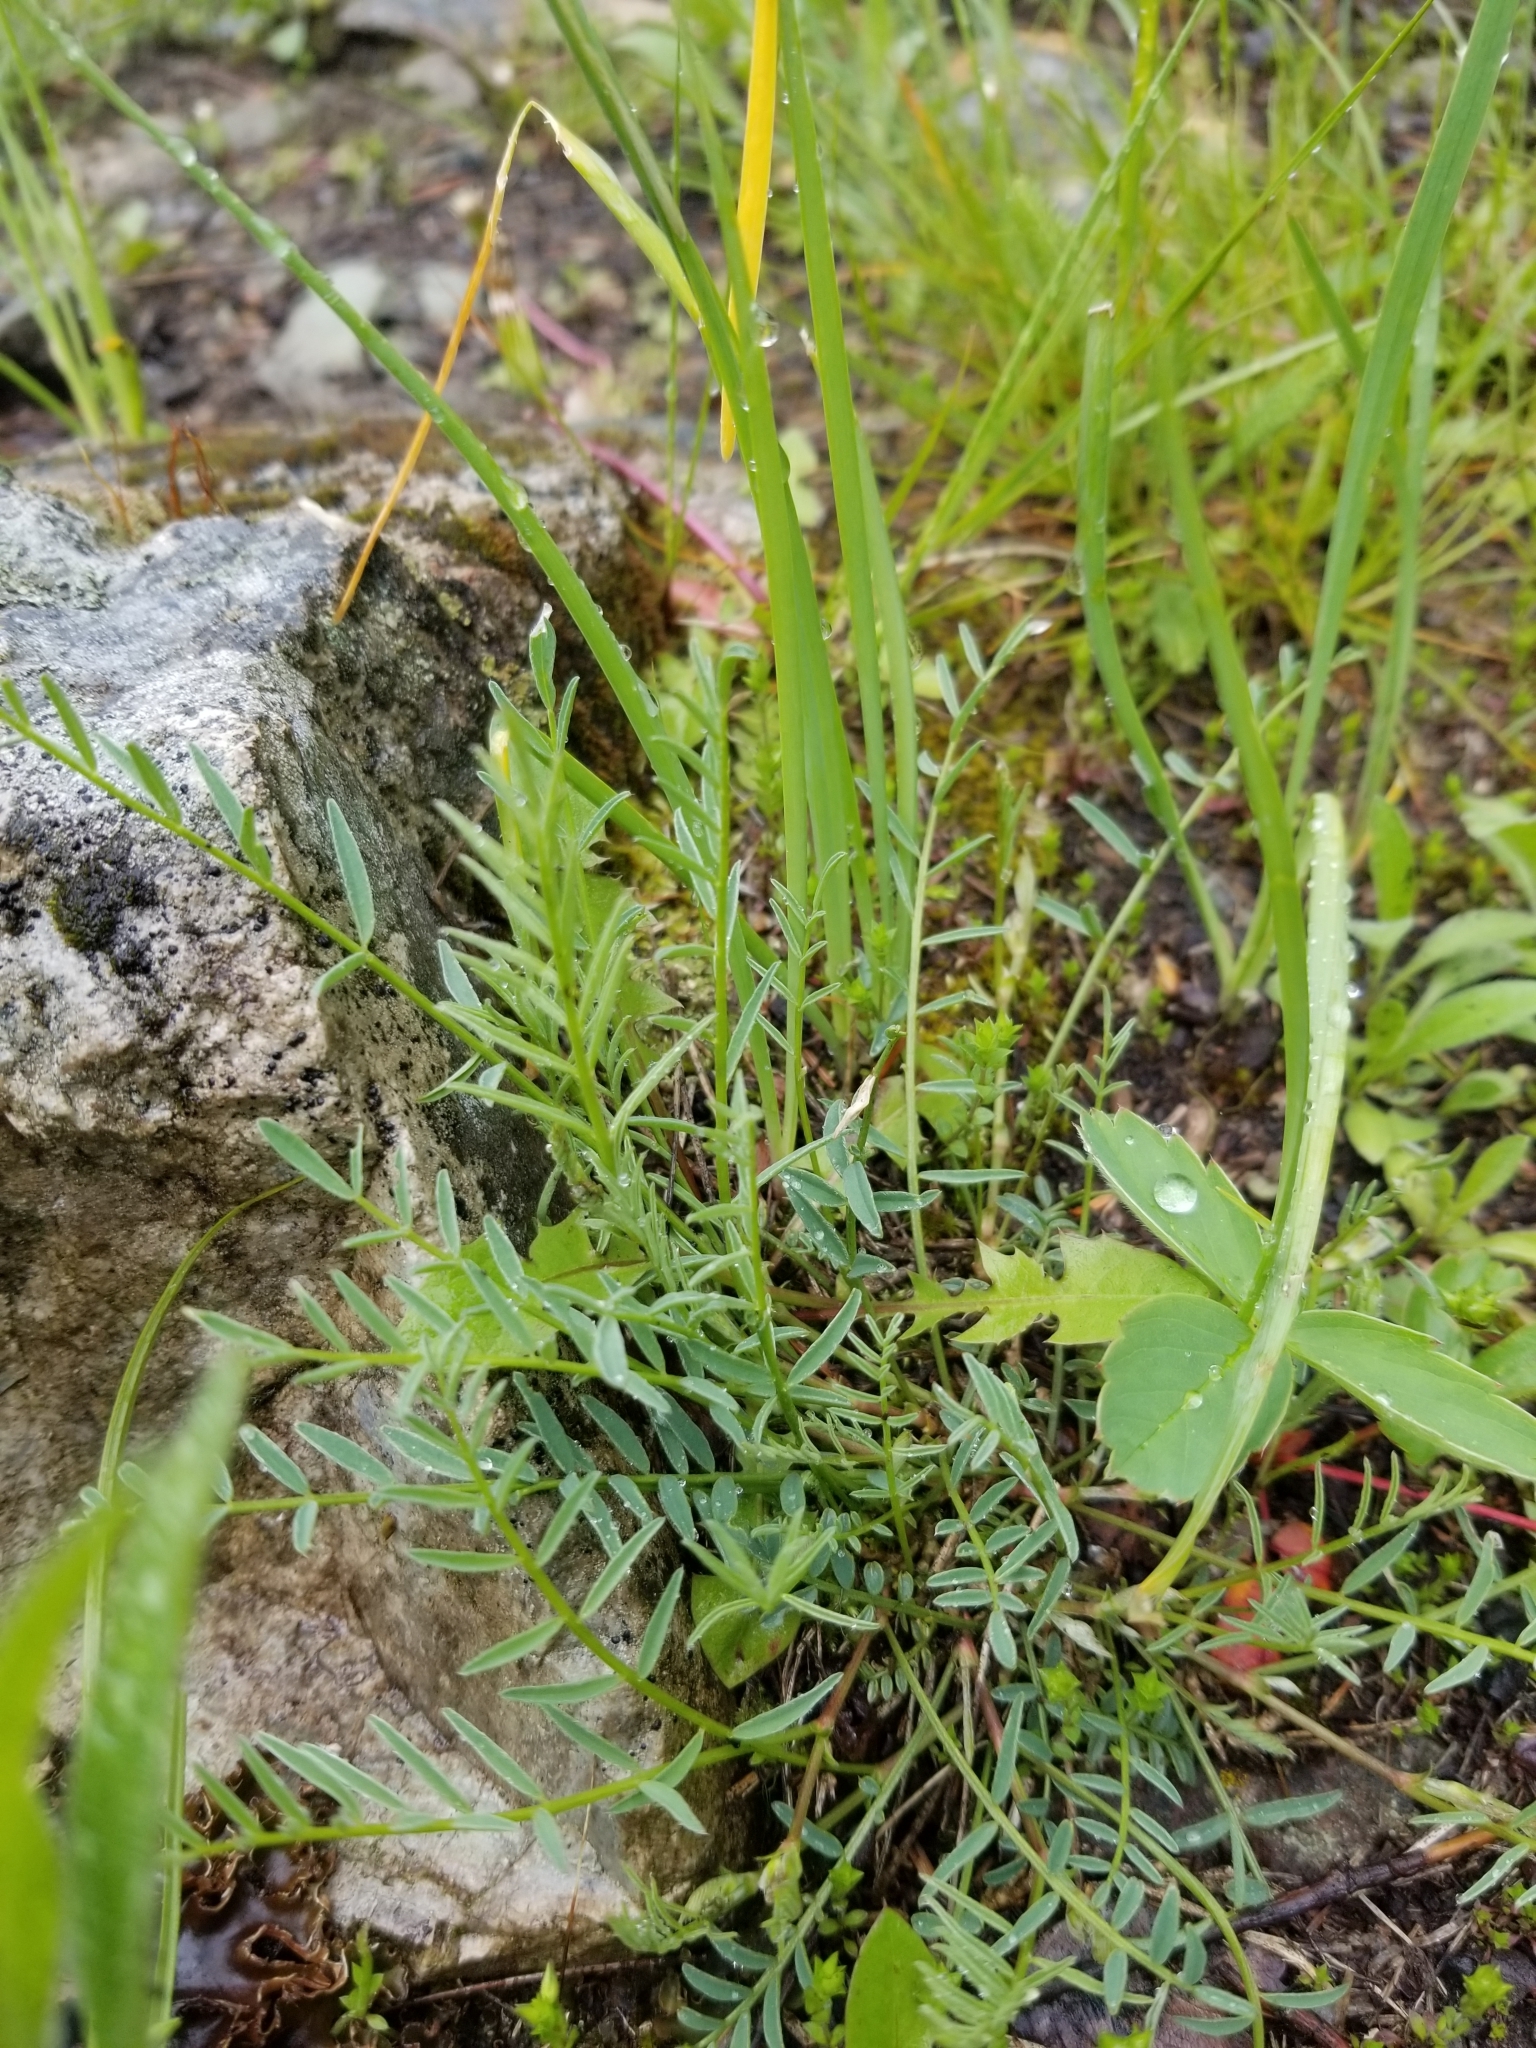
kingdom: Plantae
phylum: Tracheophyta
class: Magnoliopsida
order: Fabales
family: Fabaceae
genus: Astragalus
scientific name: Astragalus miser
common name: Timber milkvetch
